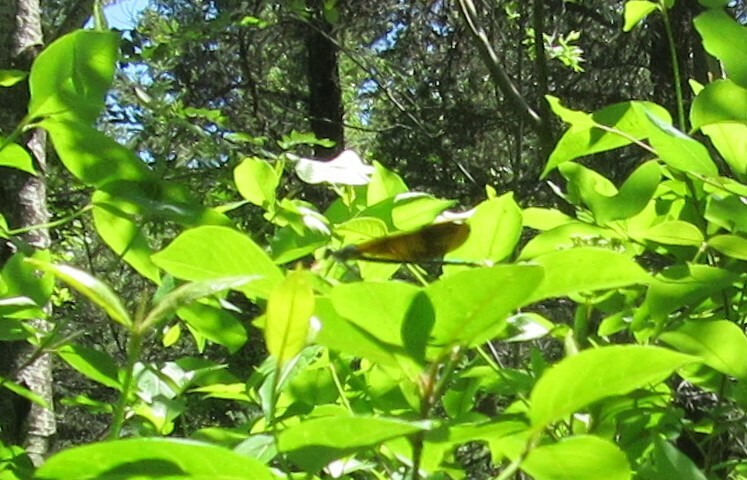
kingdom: Animalia
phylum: Arthropoda
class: Insecta
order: Odonata
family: Calopterygidae
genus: Calopteryx
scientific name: Calopteryx maculata
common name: Ebony jewelwing
